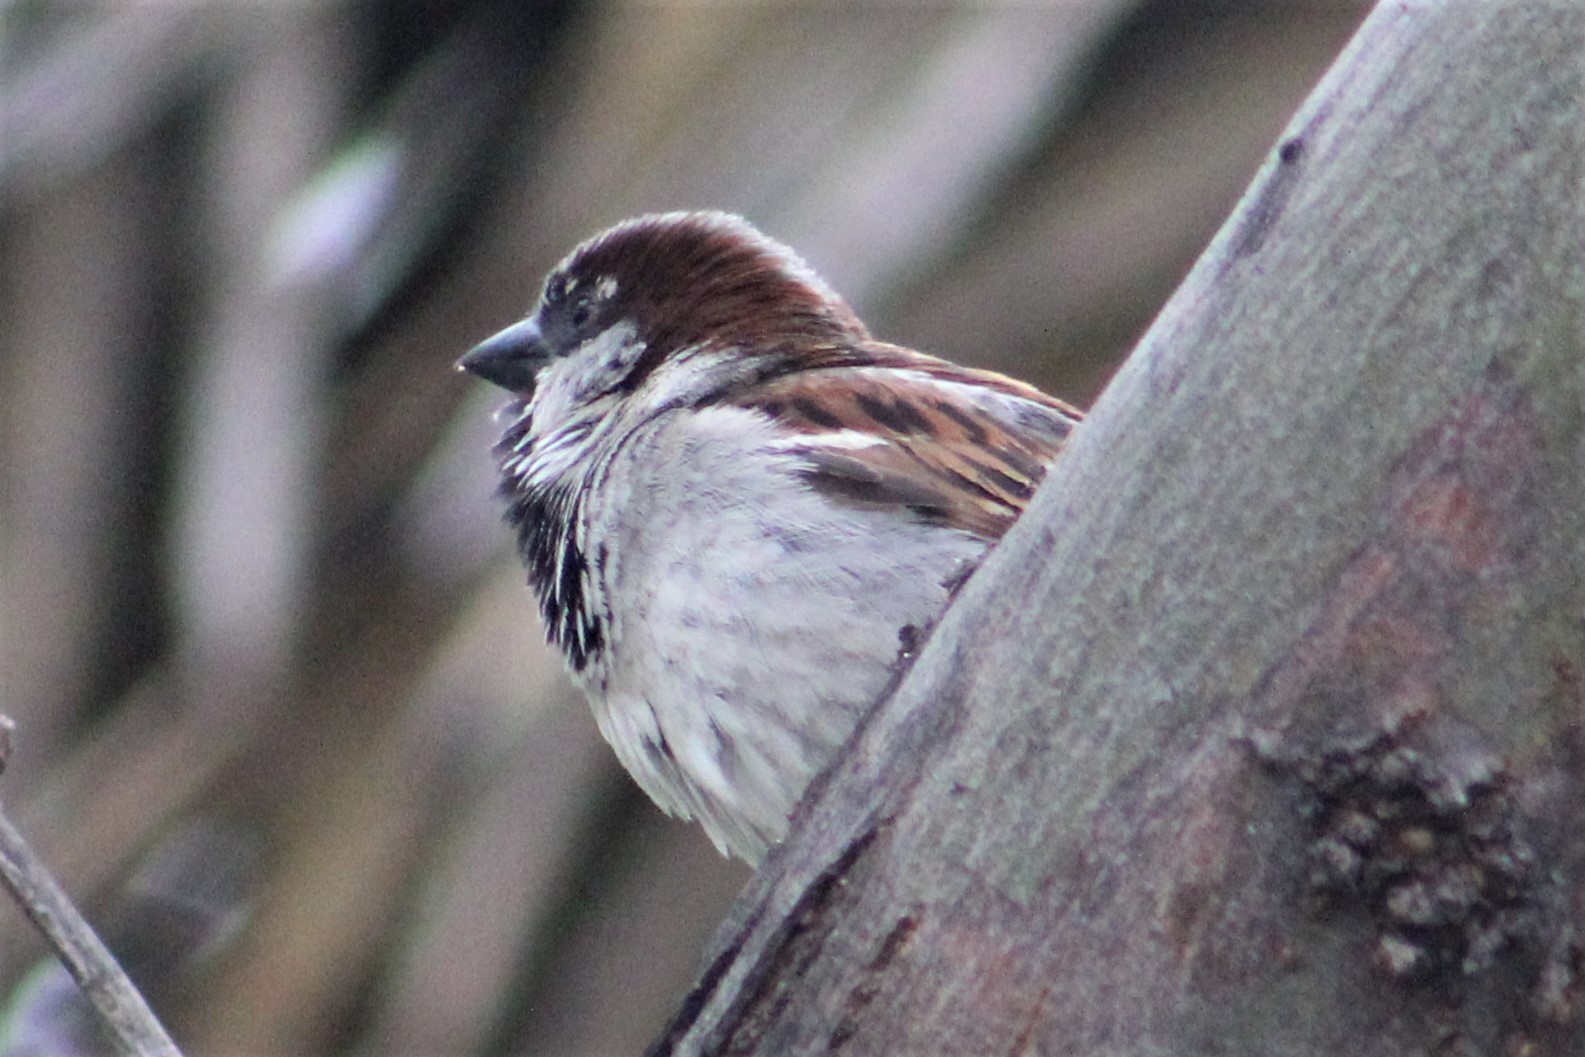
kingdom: Animalia
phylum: Chordata
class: Aves
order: Passeriformes
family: Passeridae
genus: Passer
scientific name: Passer domesticus
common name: House sparrow
